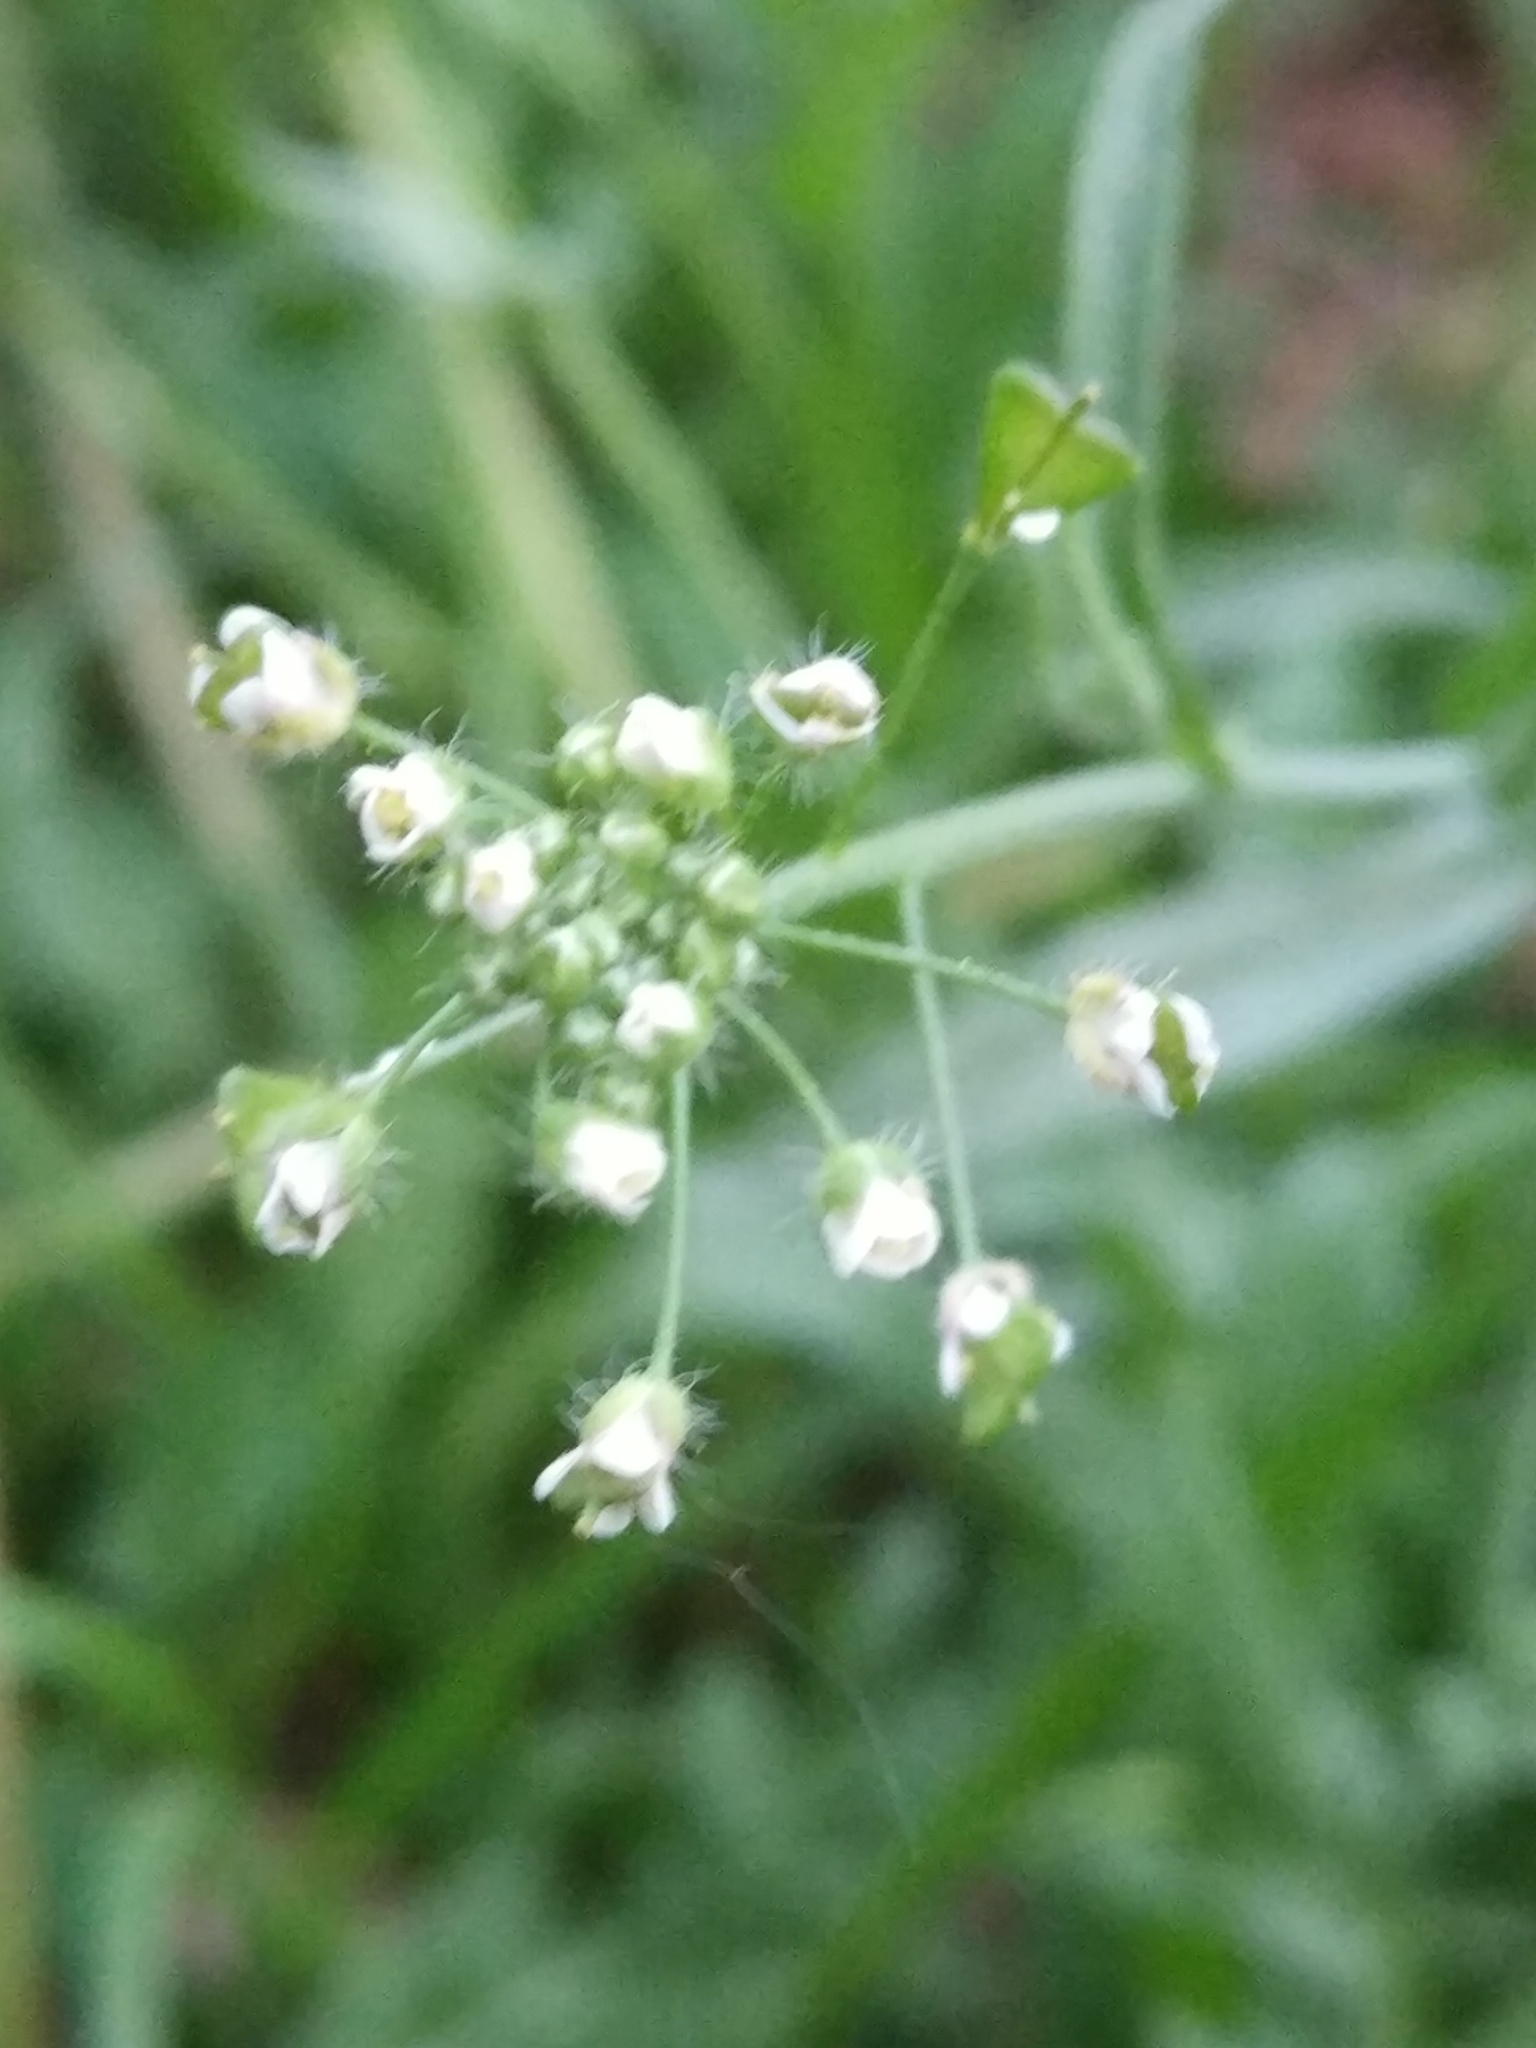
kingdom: Plantae
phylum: Tracheophyta
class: Magnoliopsida
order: Brassicales
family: Brassicaceae
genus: Capsella
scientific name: Capsella bursa-pastoris
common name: Shepherd's purse
